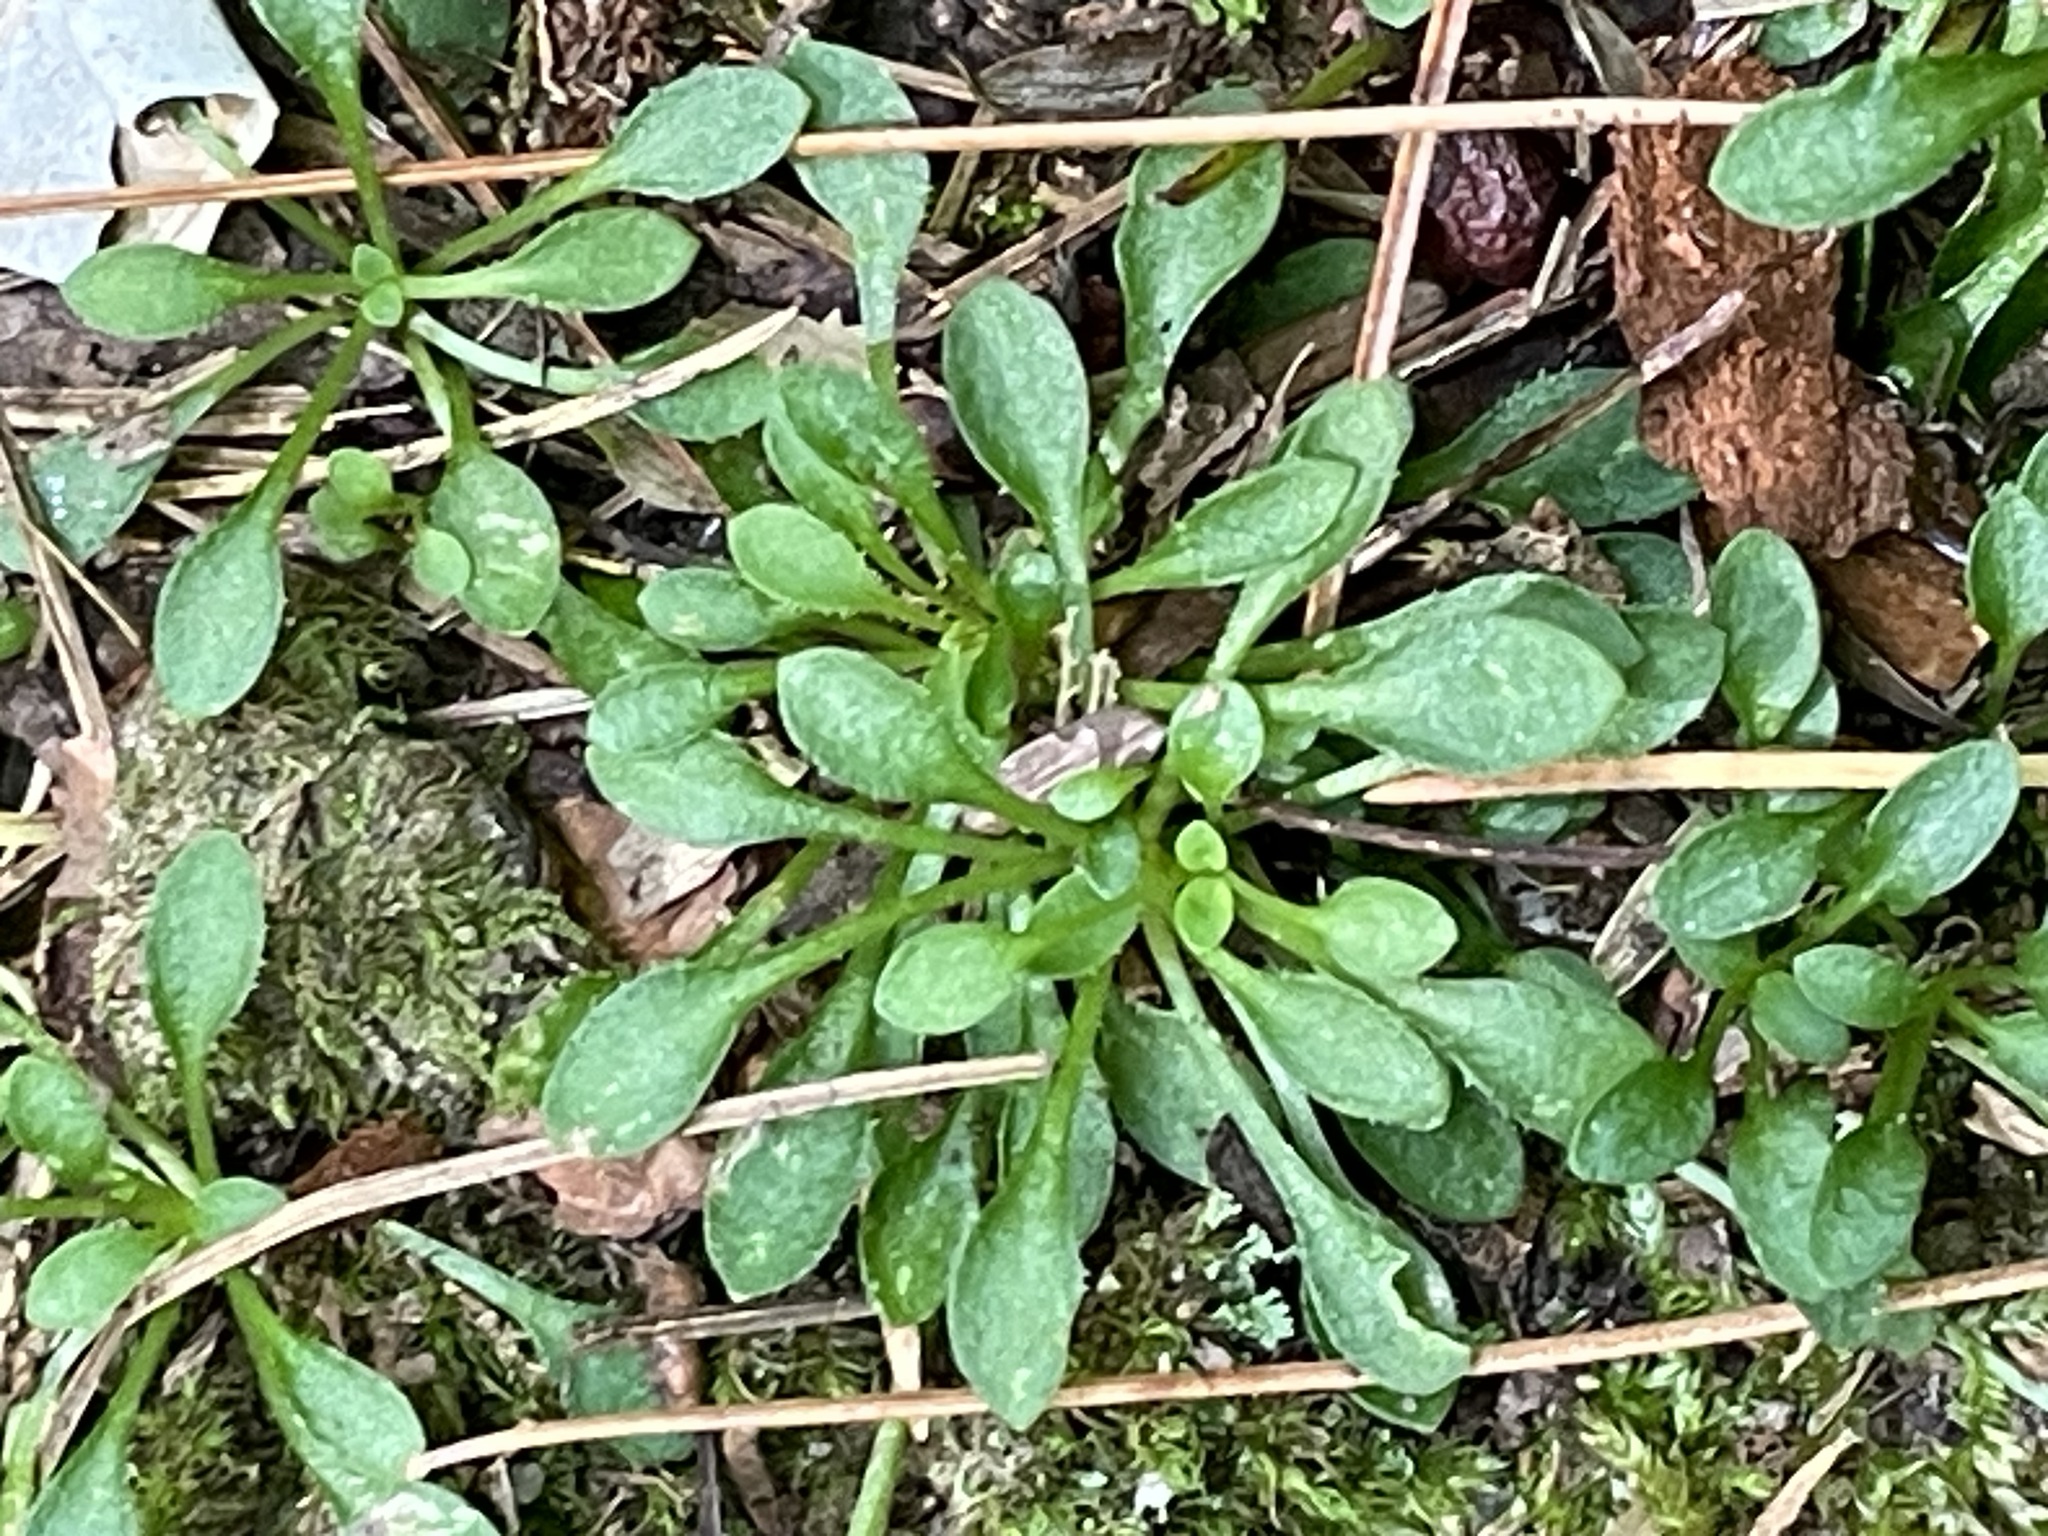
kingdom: Plantae
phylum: Tracheophyta
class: Magnoliopsida
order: Gentianales
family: Rubiaceae
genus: Houstonia
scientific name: Houstonia caerulea
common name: Bluets
